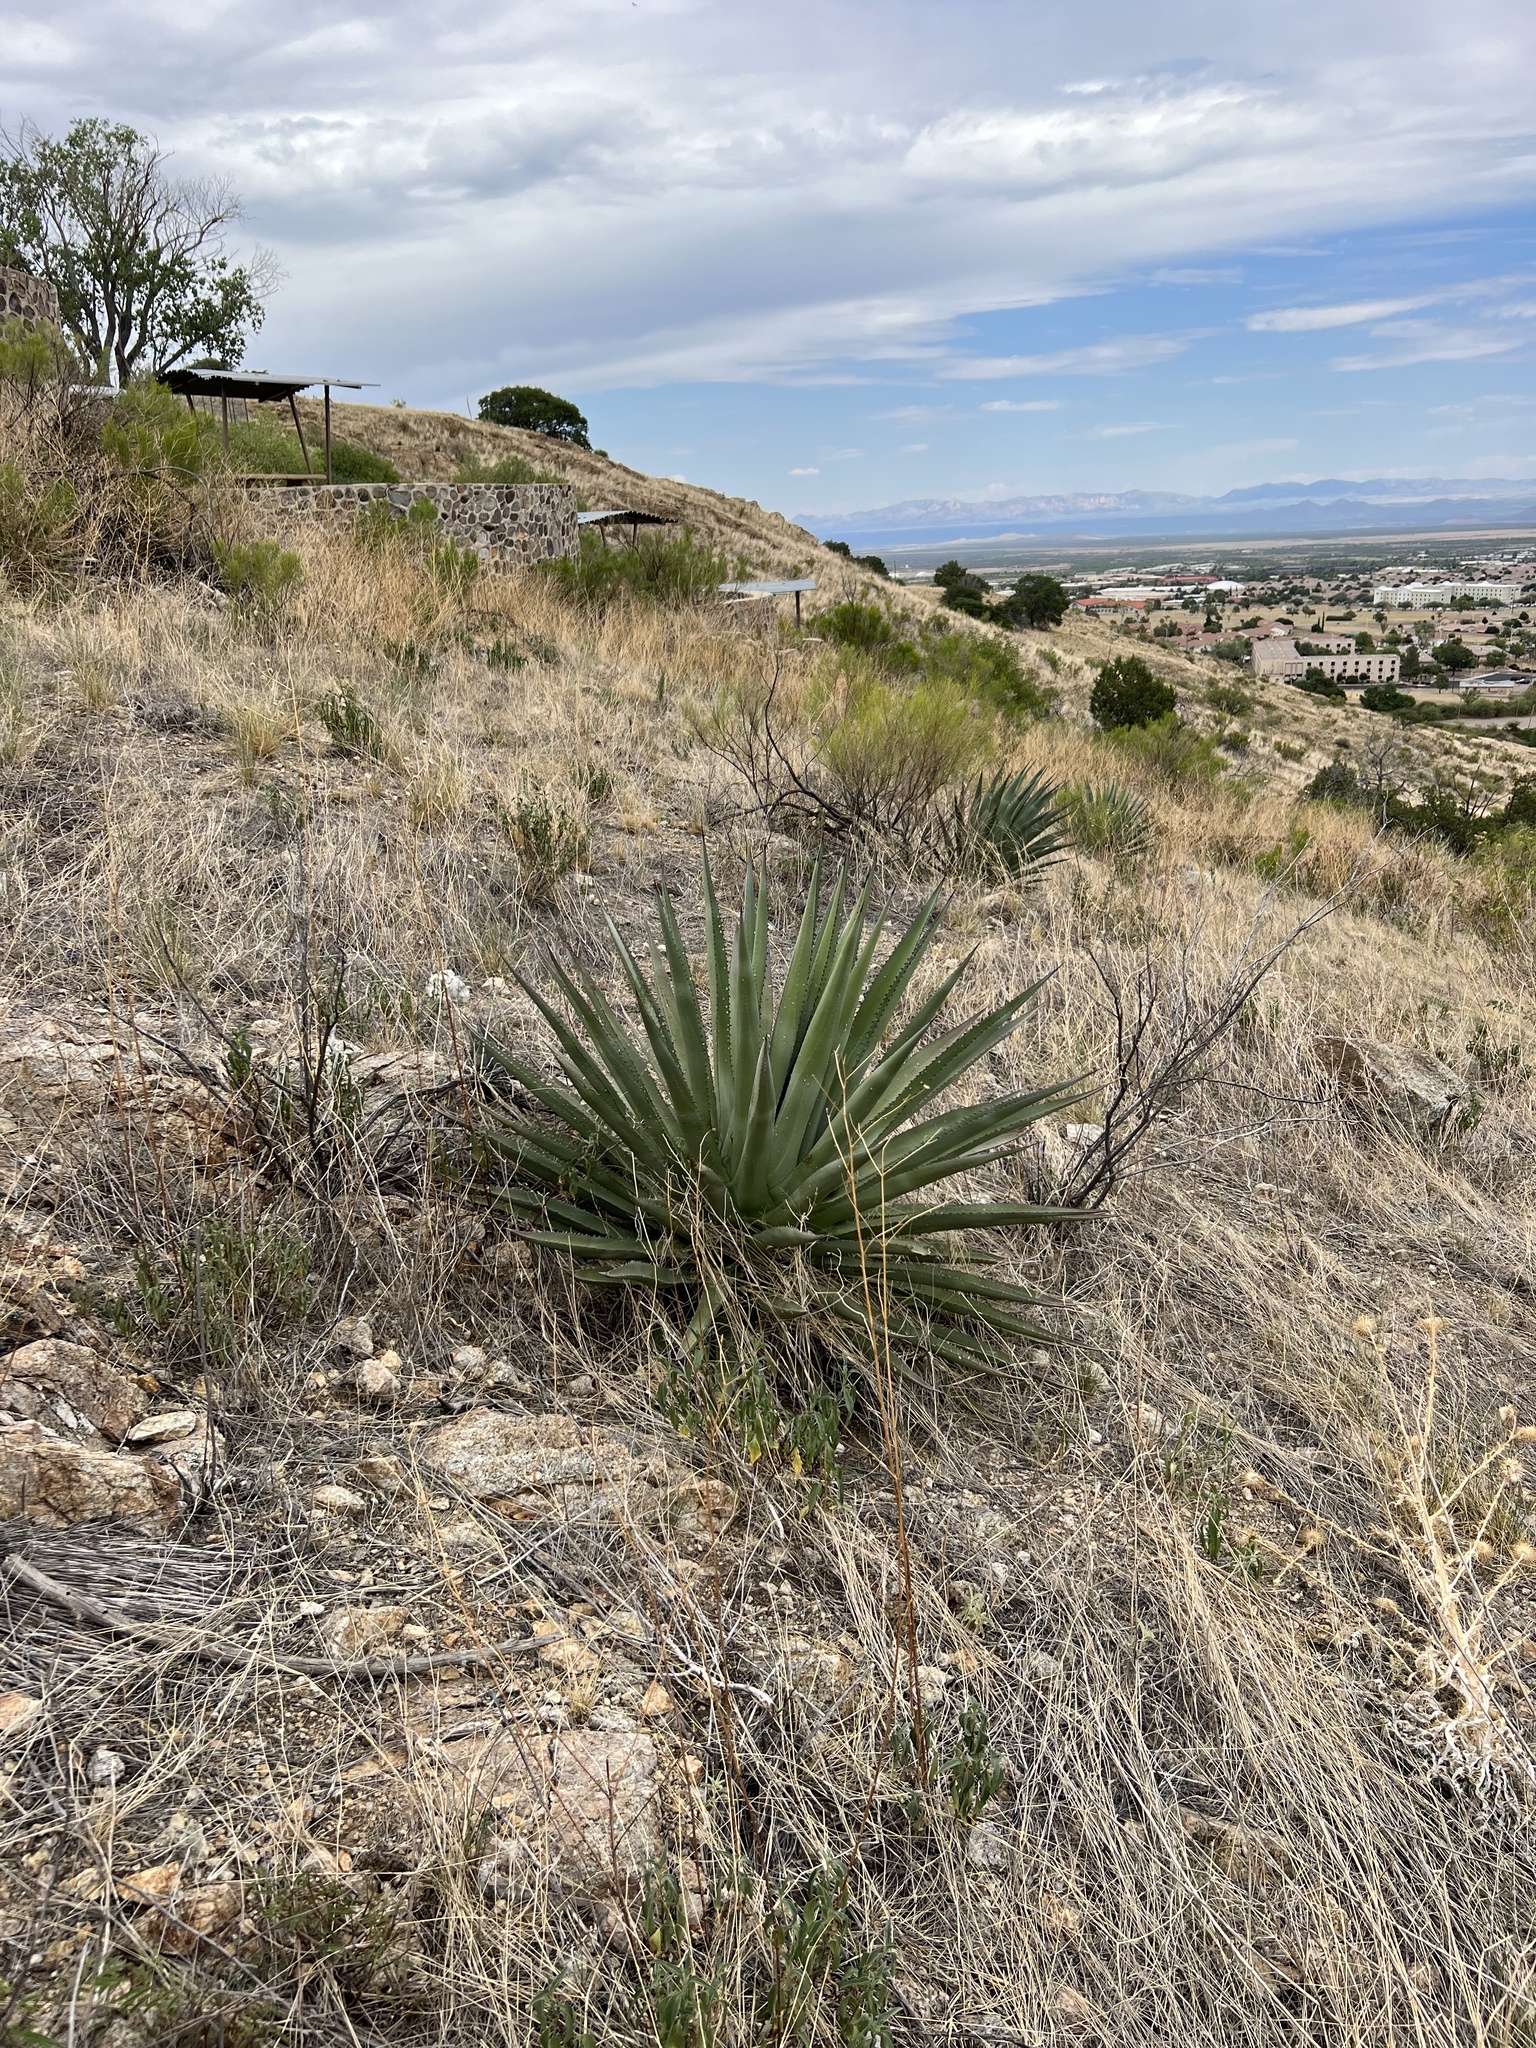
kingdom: Plantae
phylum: Tracheophyta
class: Liliopsida
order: Asparagales
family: Asparagaceae
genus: Agave
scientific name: Agave palmeri
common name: Palmer agave
